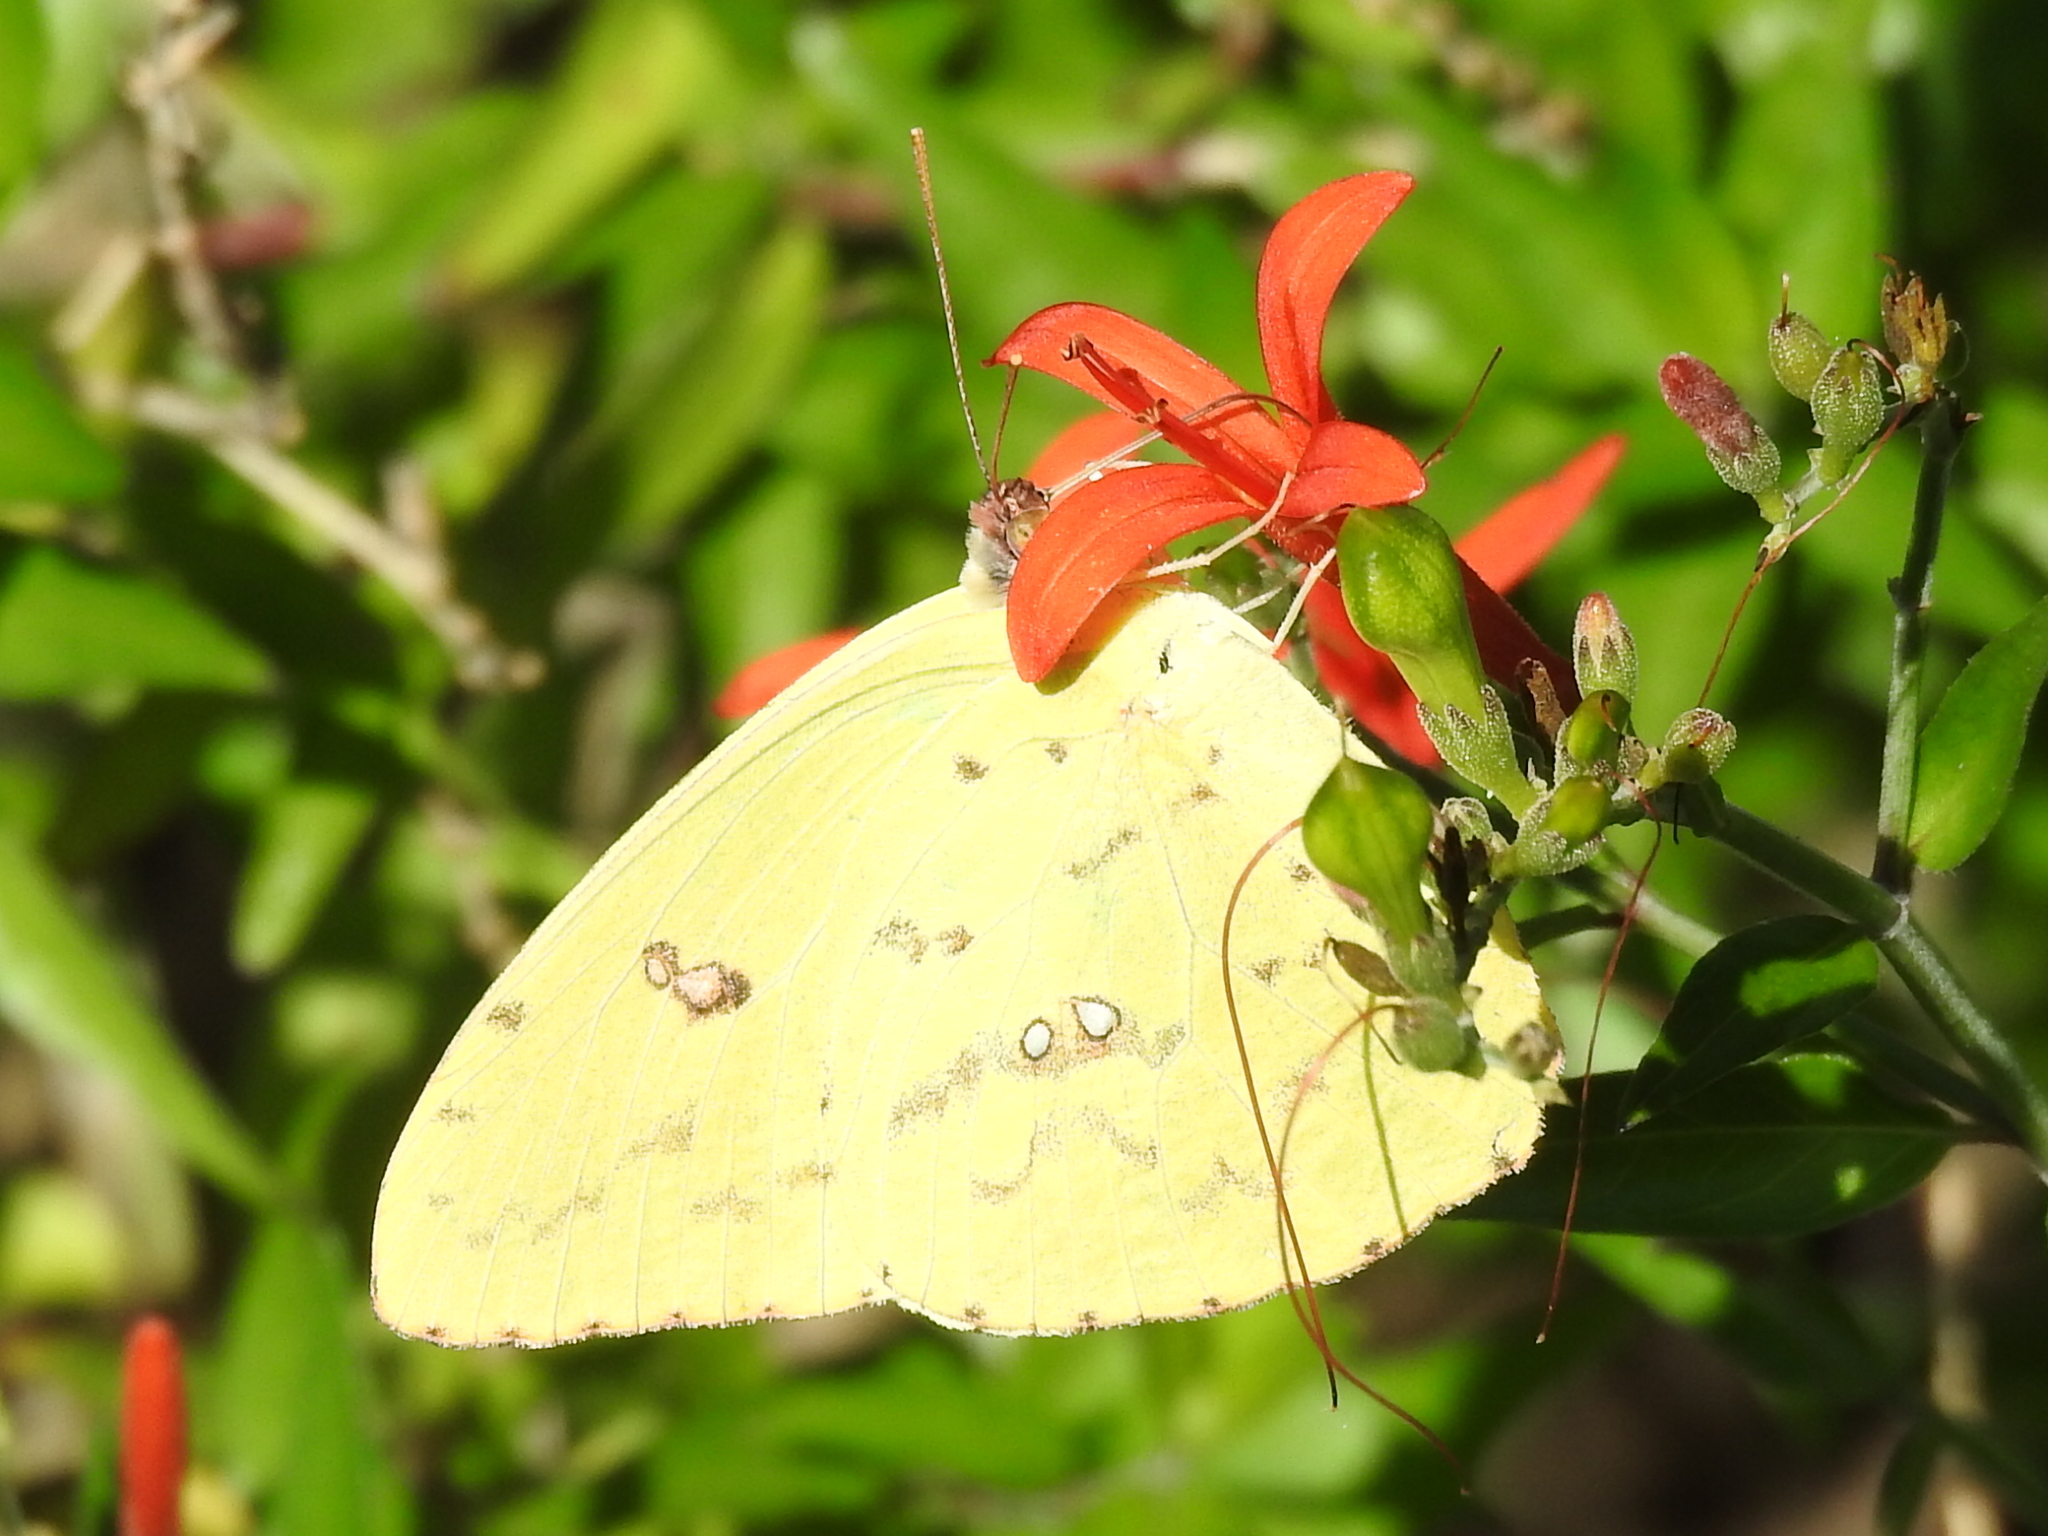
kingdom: Animalia
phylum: Arthropoda
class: Insecta
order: Lepidoptera
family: Pieridae
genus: Phoebis
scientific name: Phoebis sennae
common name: Cloudless sulphur
